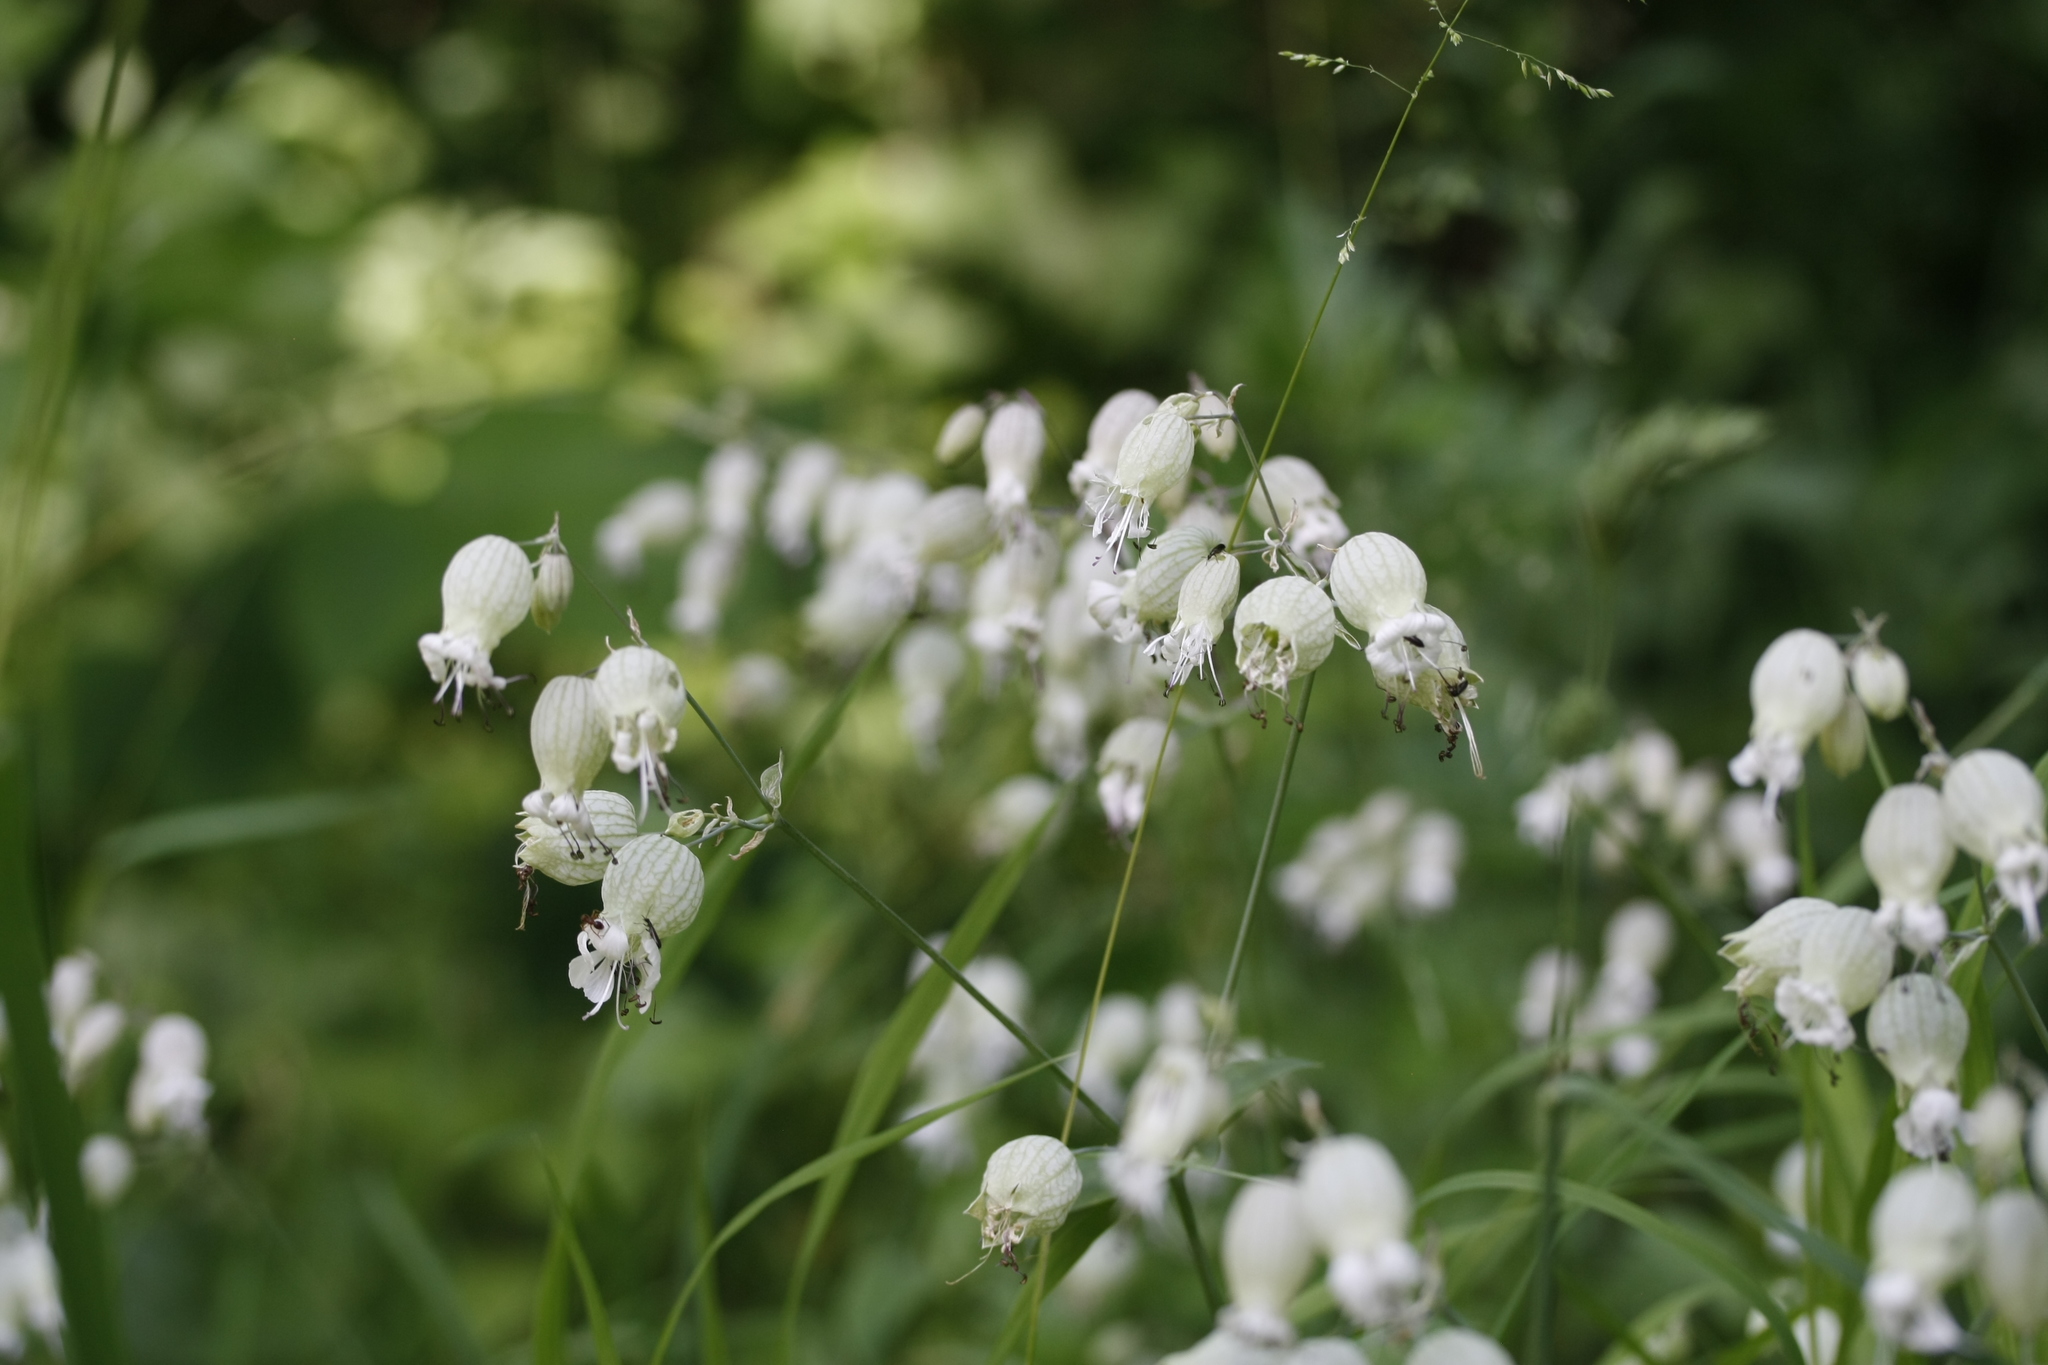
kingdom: Plantae
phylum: Tracheophyta
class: Magnoliopsida
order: Caryophyllales
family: Caryophyllaceae
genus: Silene
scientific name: Silene vulgaris
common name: Bladder campion
